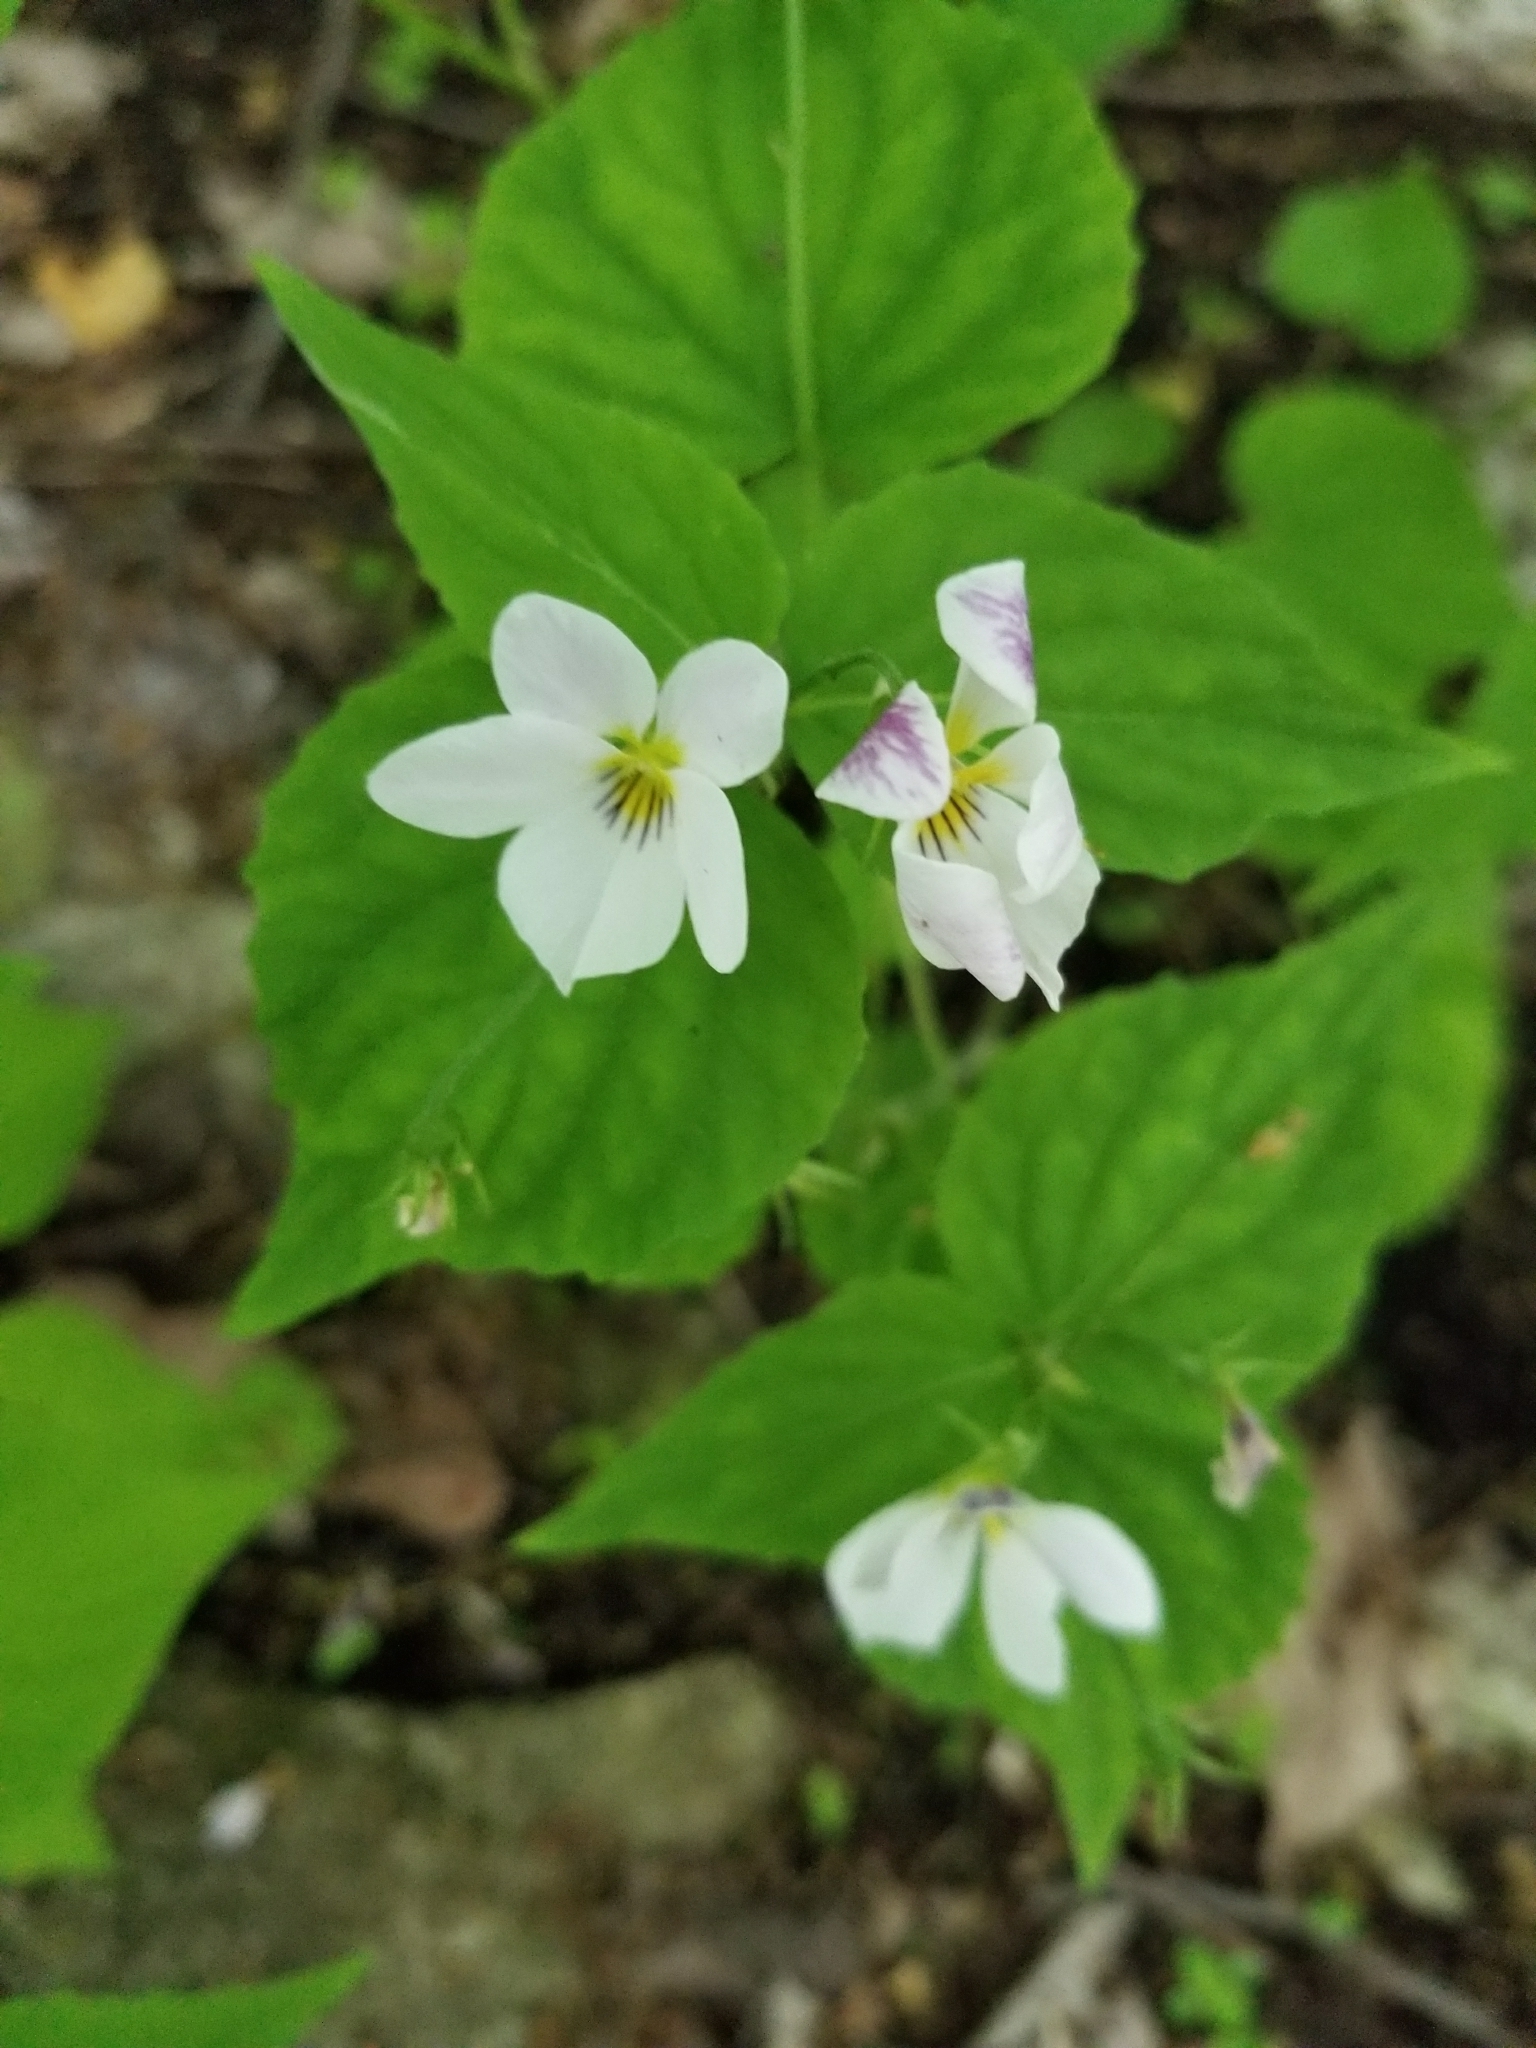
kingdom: Plantae
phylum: Tracheophyta
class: Magnoliopsida
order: Malpighiales
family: Violaceae
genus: Viola
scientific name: Viola canadensis
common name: Canada violet
